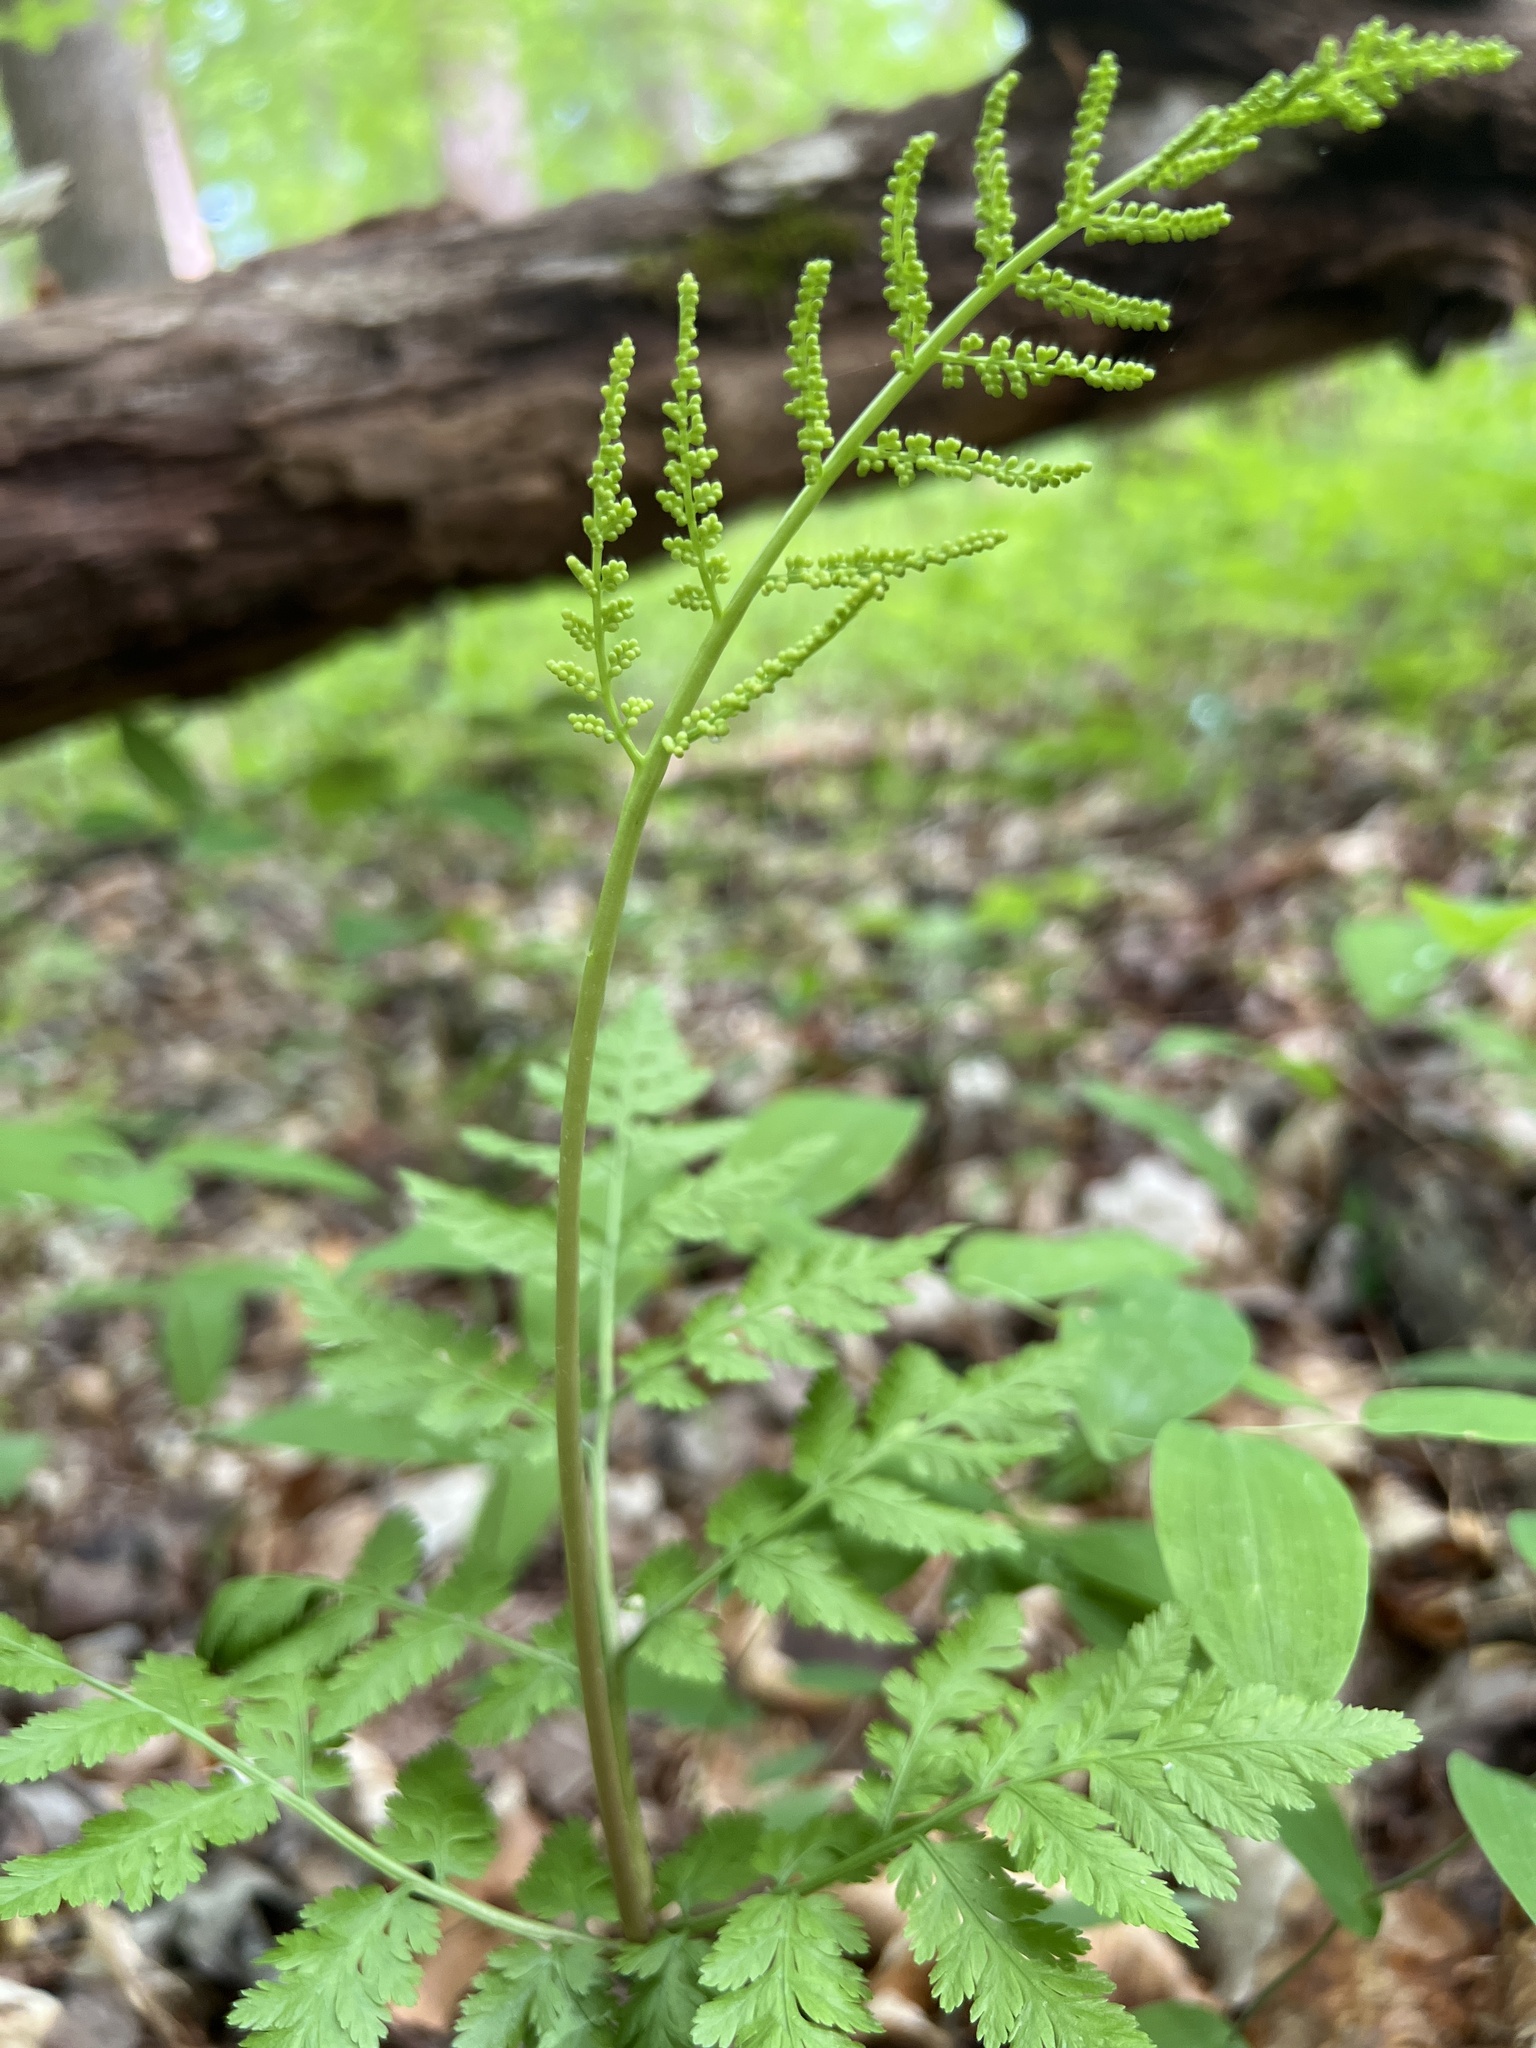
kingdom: Plantae
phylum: Tracheophyta
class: Polypodiopsida
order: Ophioglossales
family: Ophioglossaceae
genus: Botrypus
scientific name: Botrypus virginianus
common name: Common grapefern
